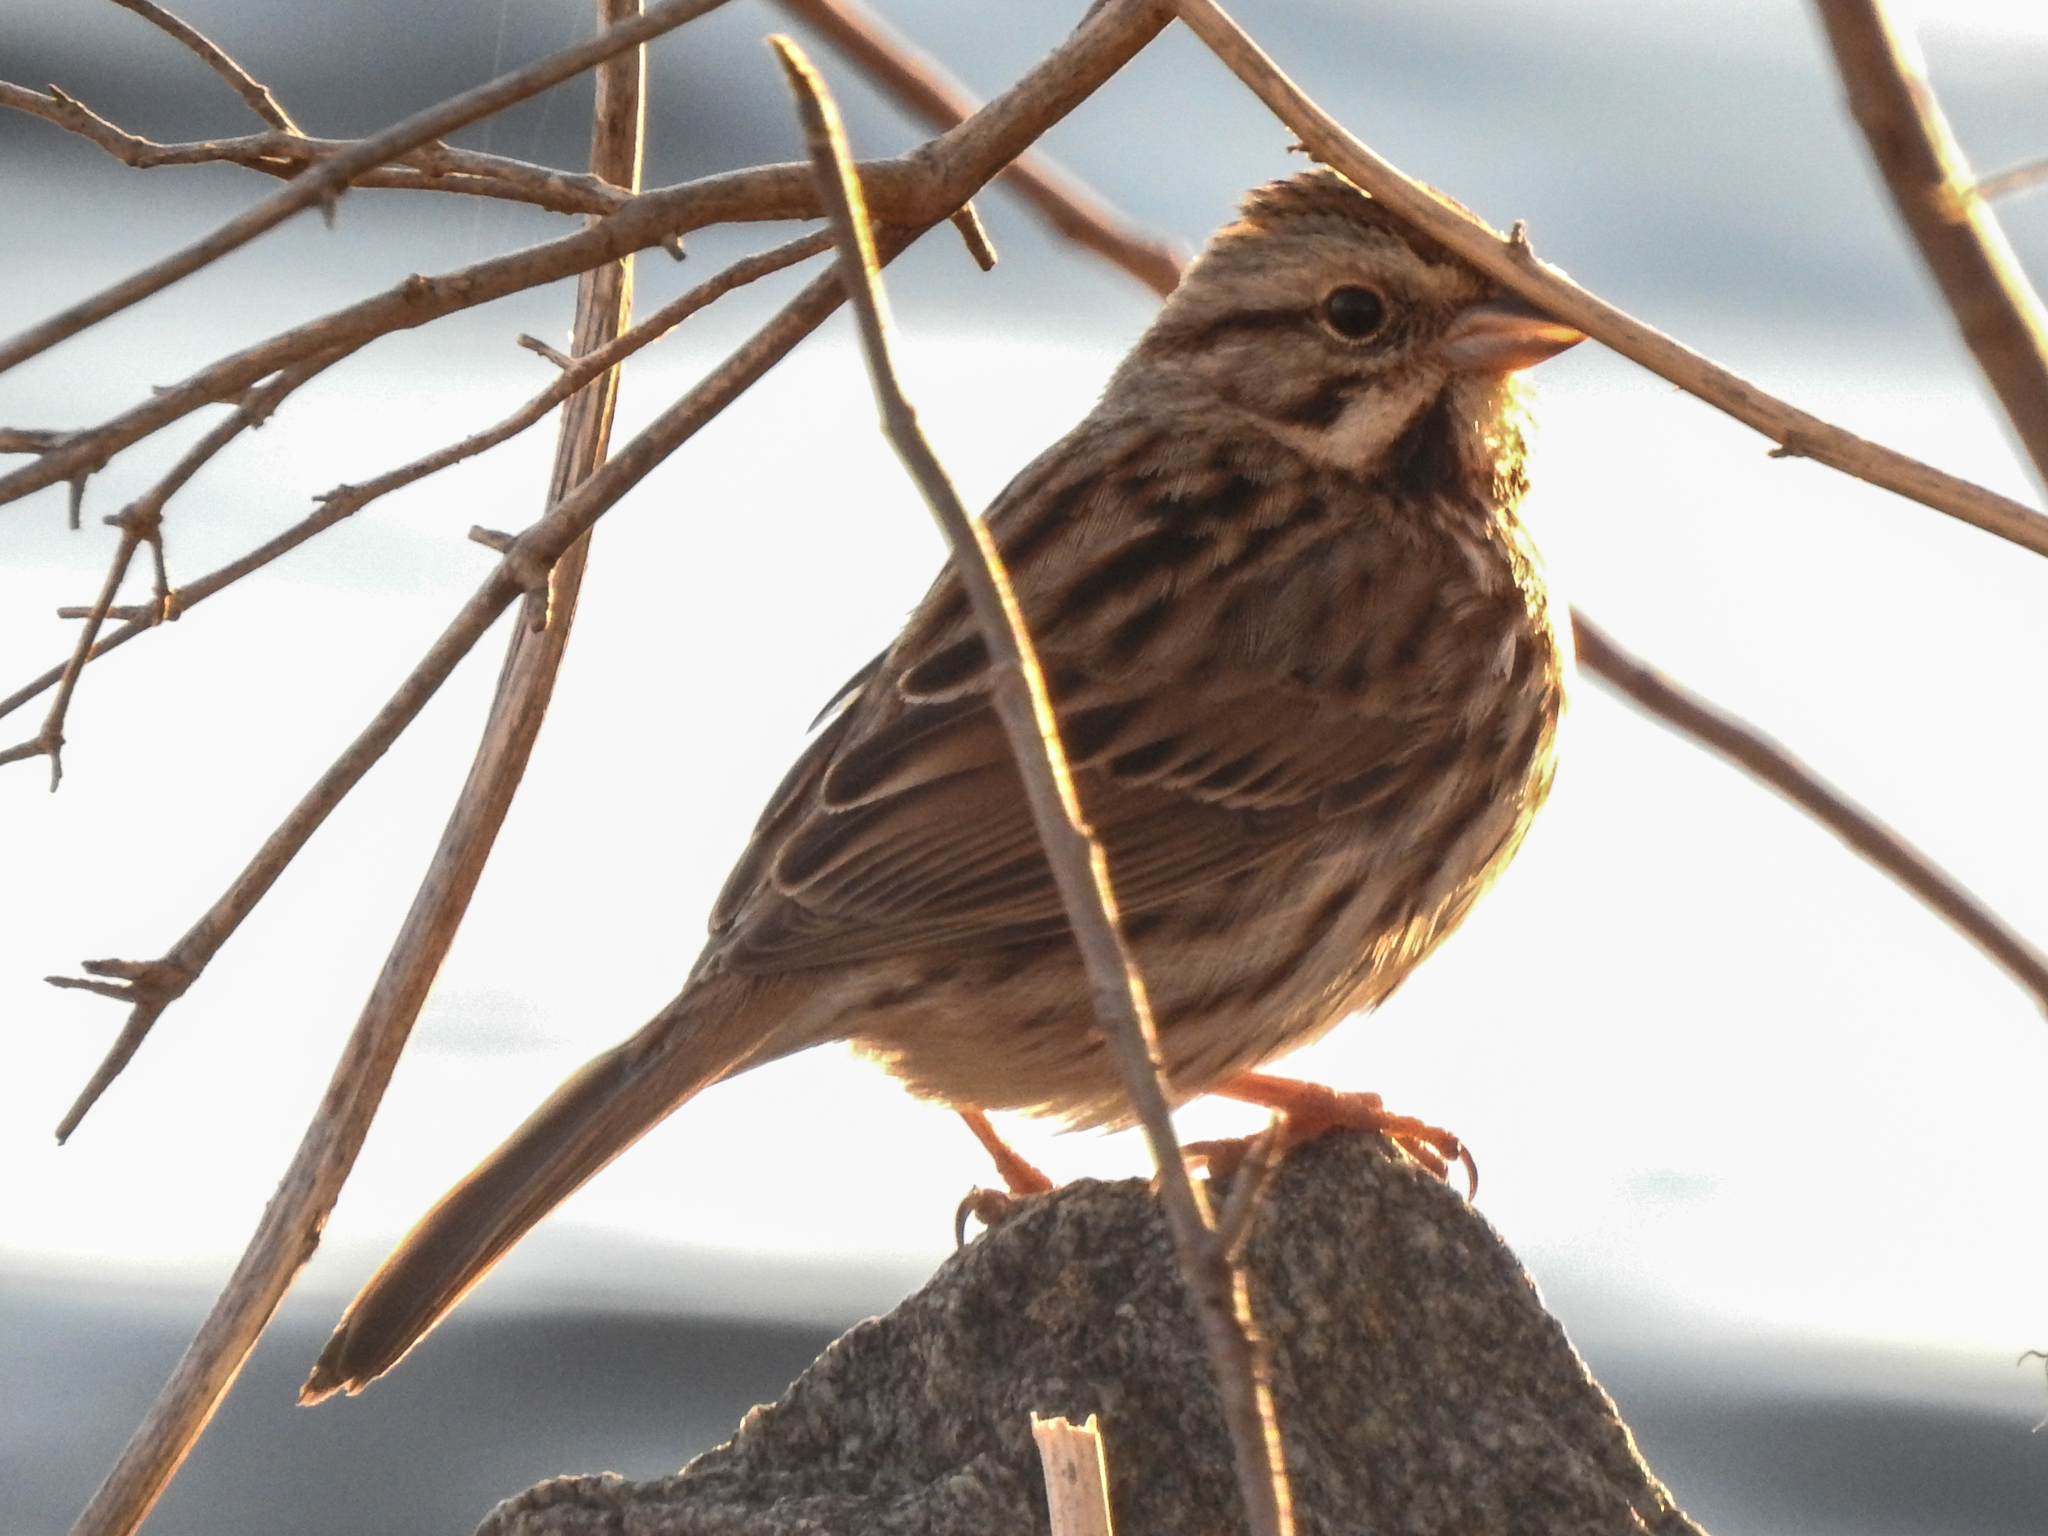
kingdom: Animalia
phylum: Chordata
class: Aves
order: Passeriformes
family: Passerellidae
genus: Melospiza
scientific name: Melospiza melodia
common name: Song sparrow
